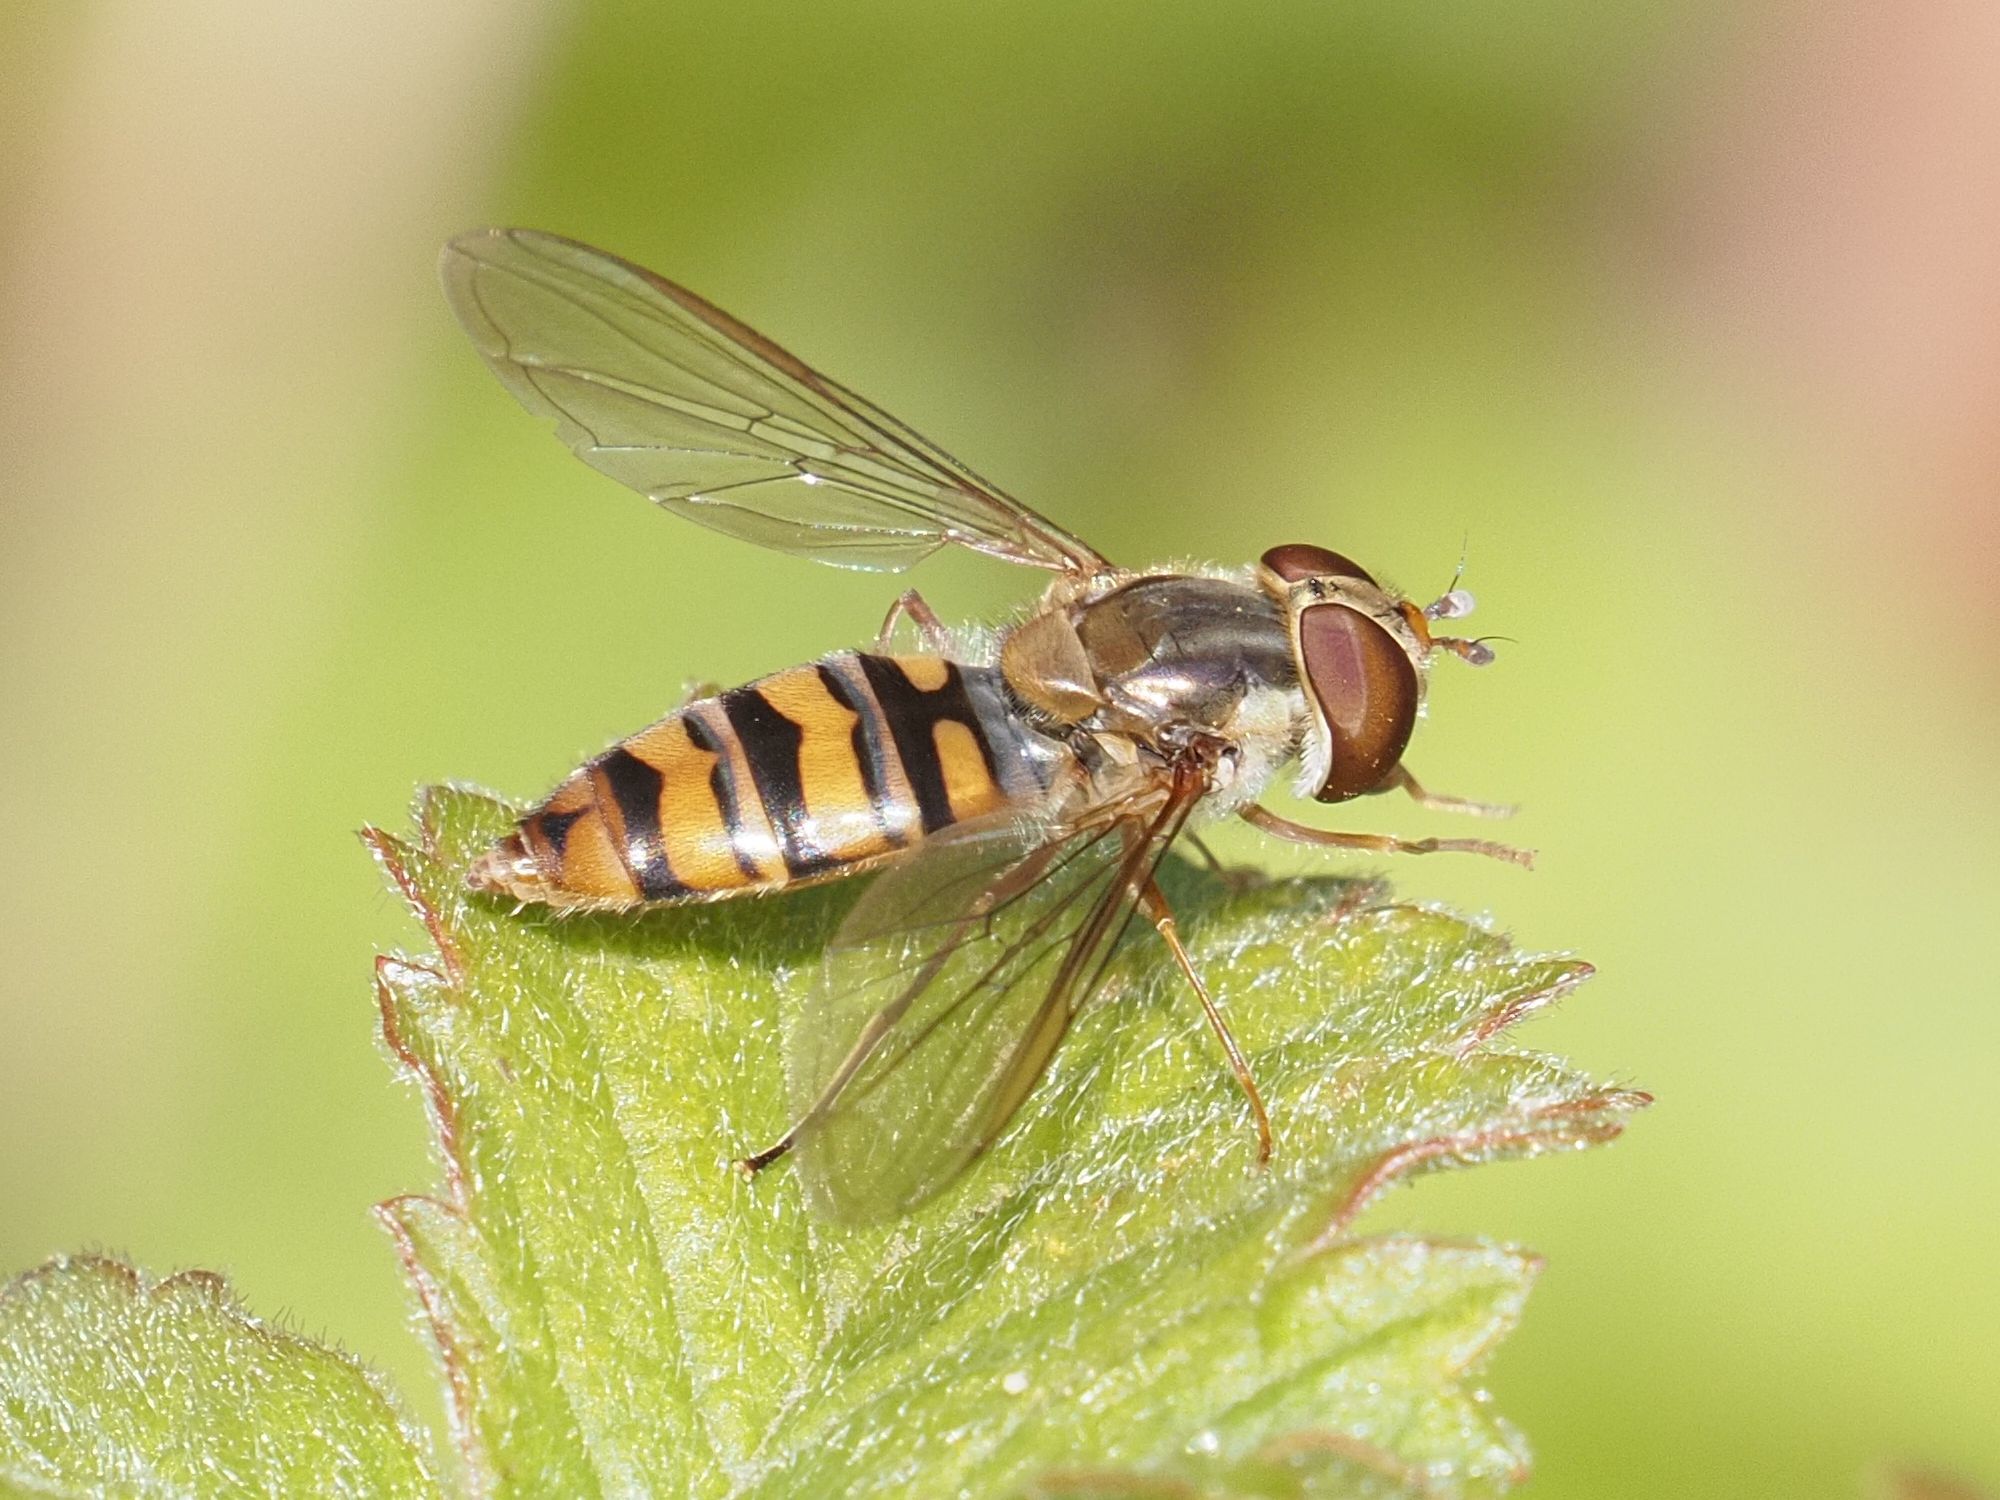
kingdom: Animalia
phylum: Arthropoda
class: Insecta
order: Diptera
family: Syrphidae
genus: Episyrphus
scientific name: Episyrphus balteatus
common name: Marmalade hoverfly
